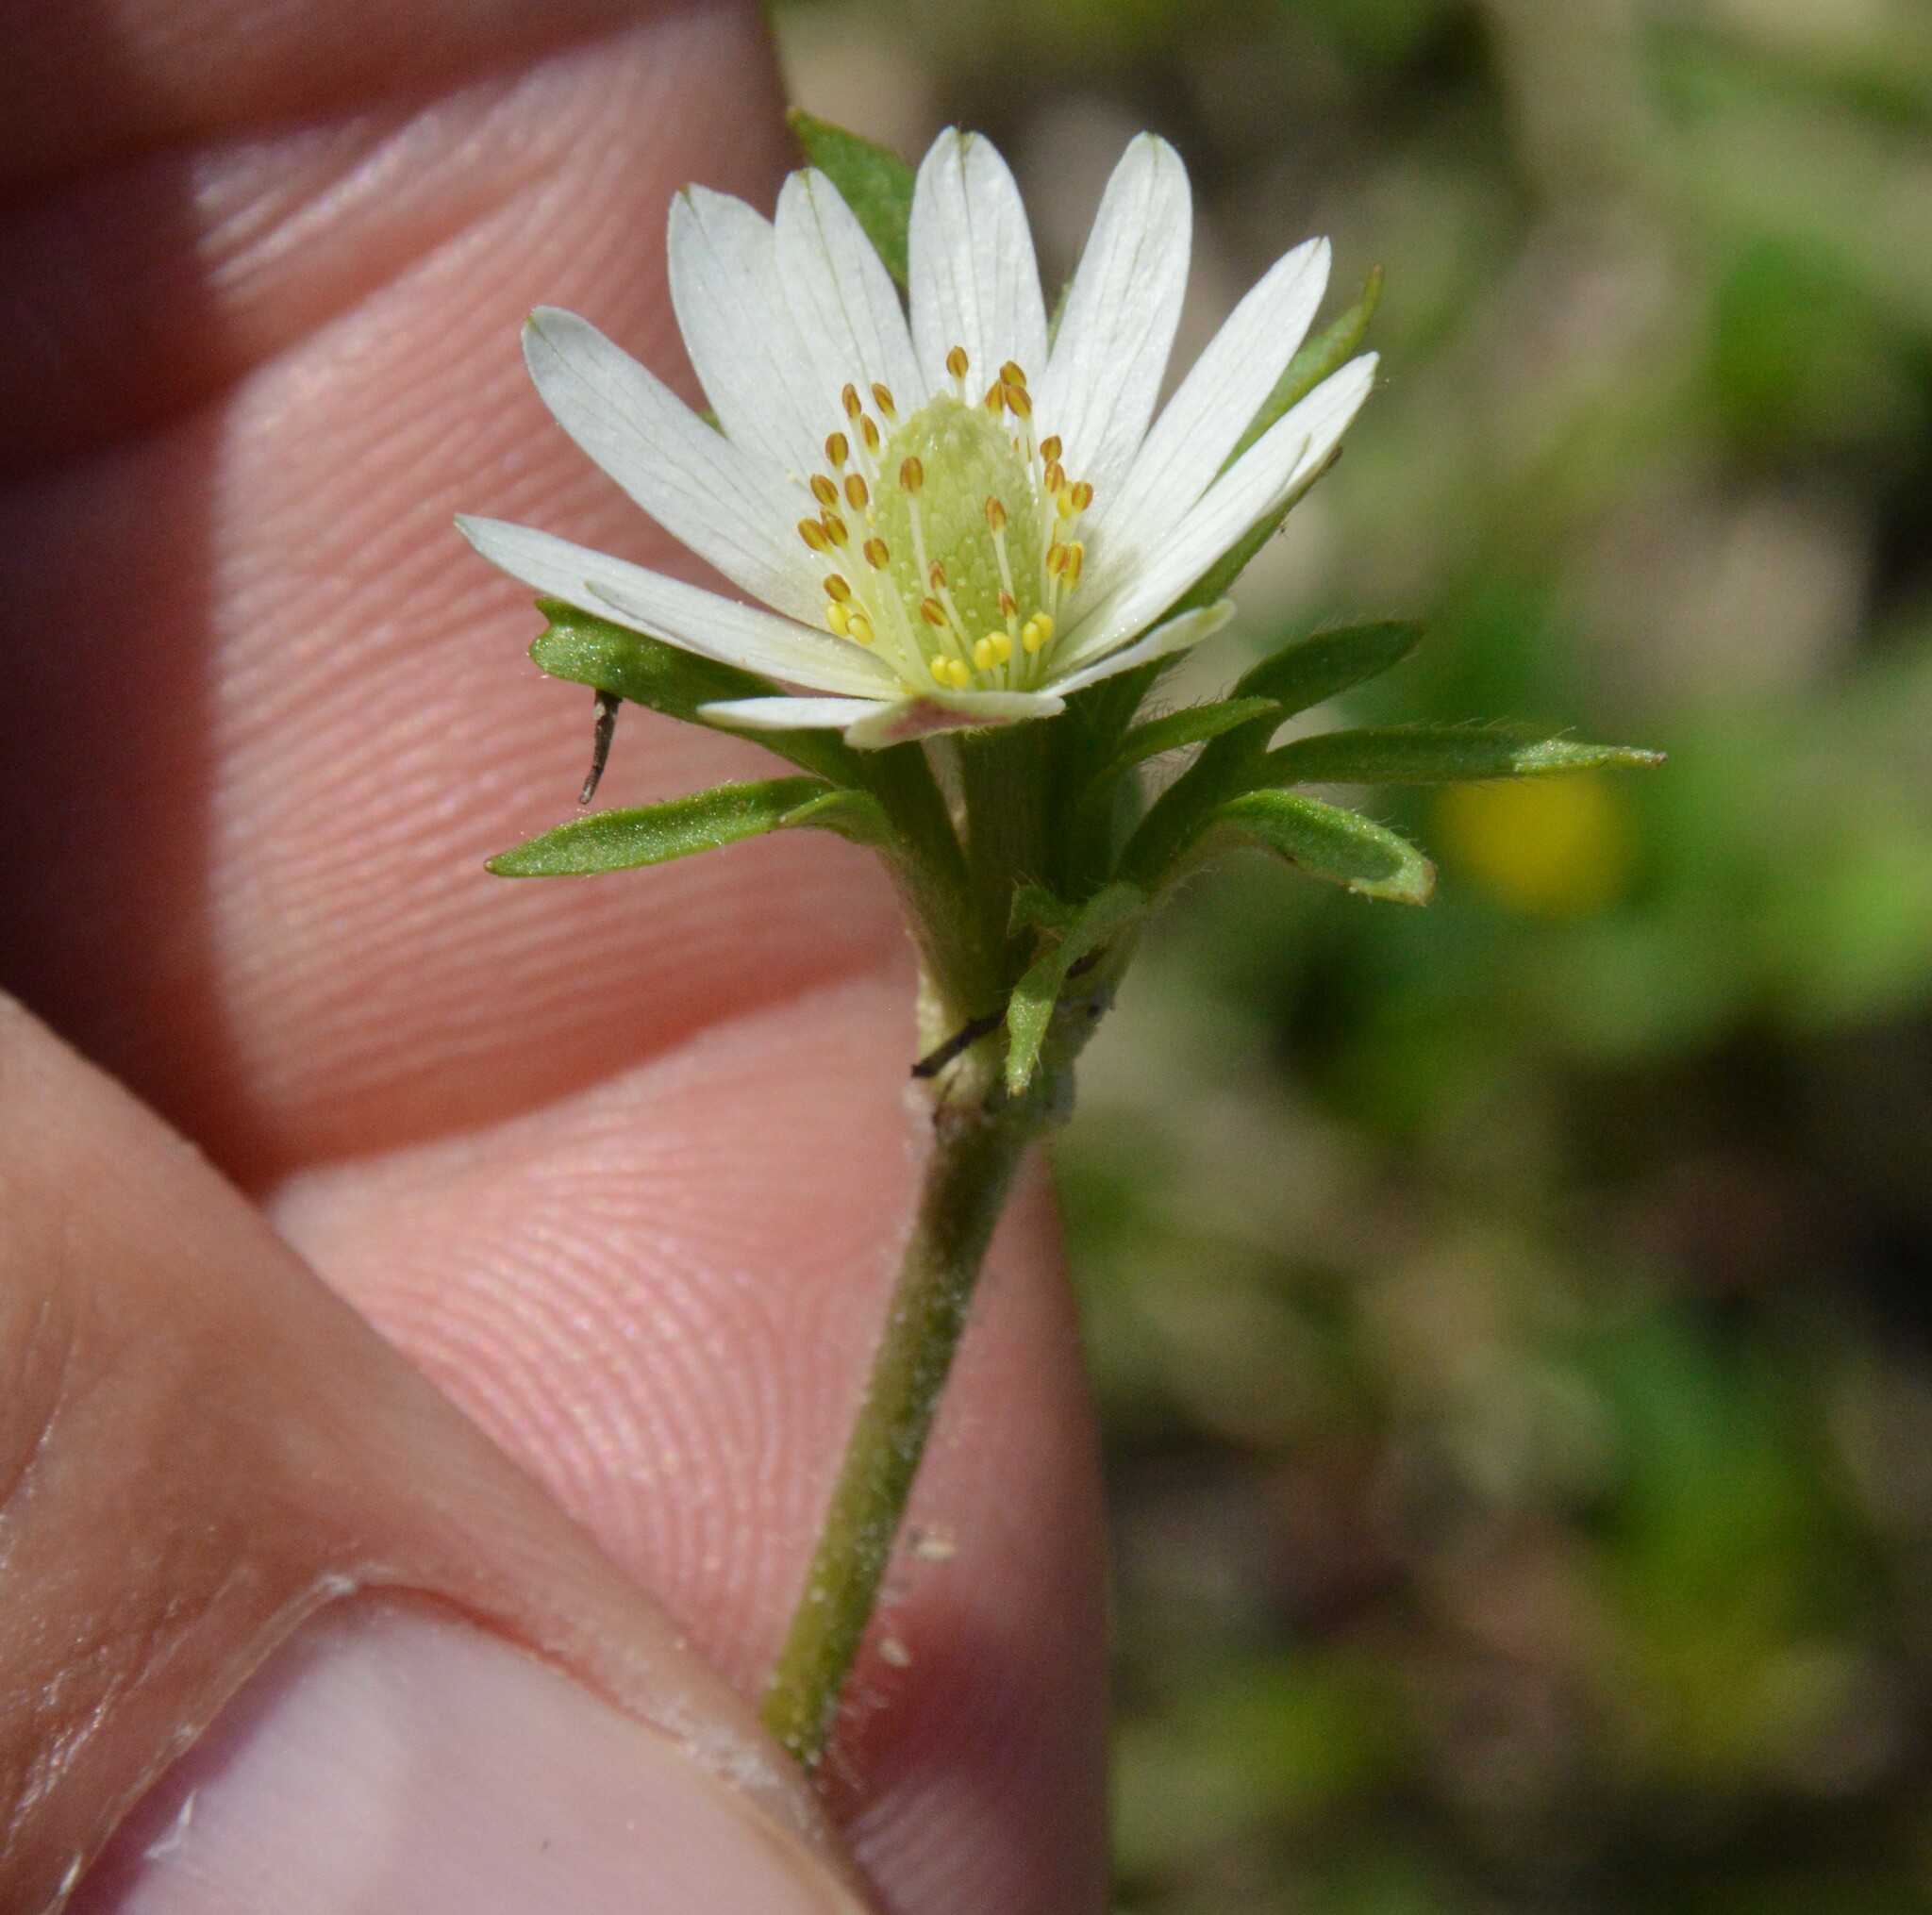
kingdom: Plantae
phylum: Tracheophyta
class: Magnoliopsida
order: Ranunculales
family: Ranunculaceae
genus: Anemone
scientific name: Anemone berlandieri
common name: Ten-petal anemone
